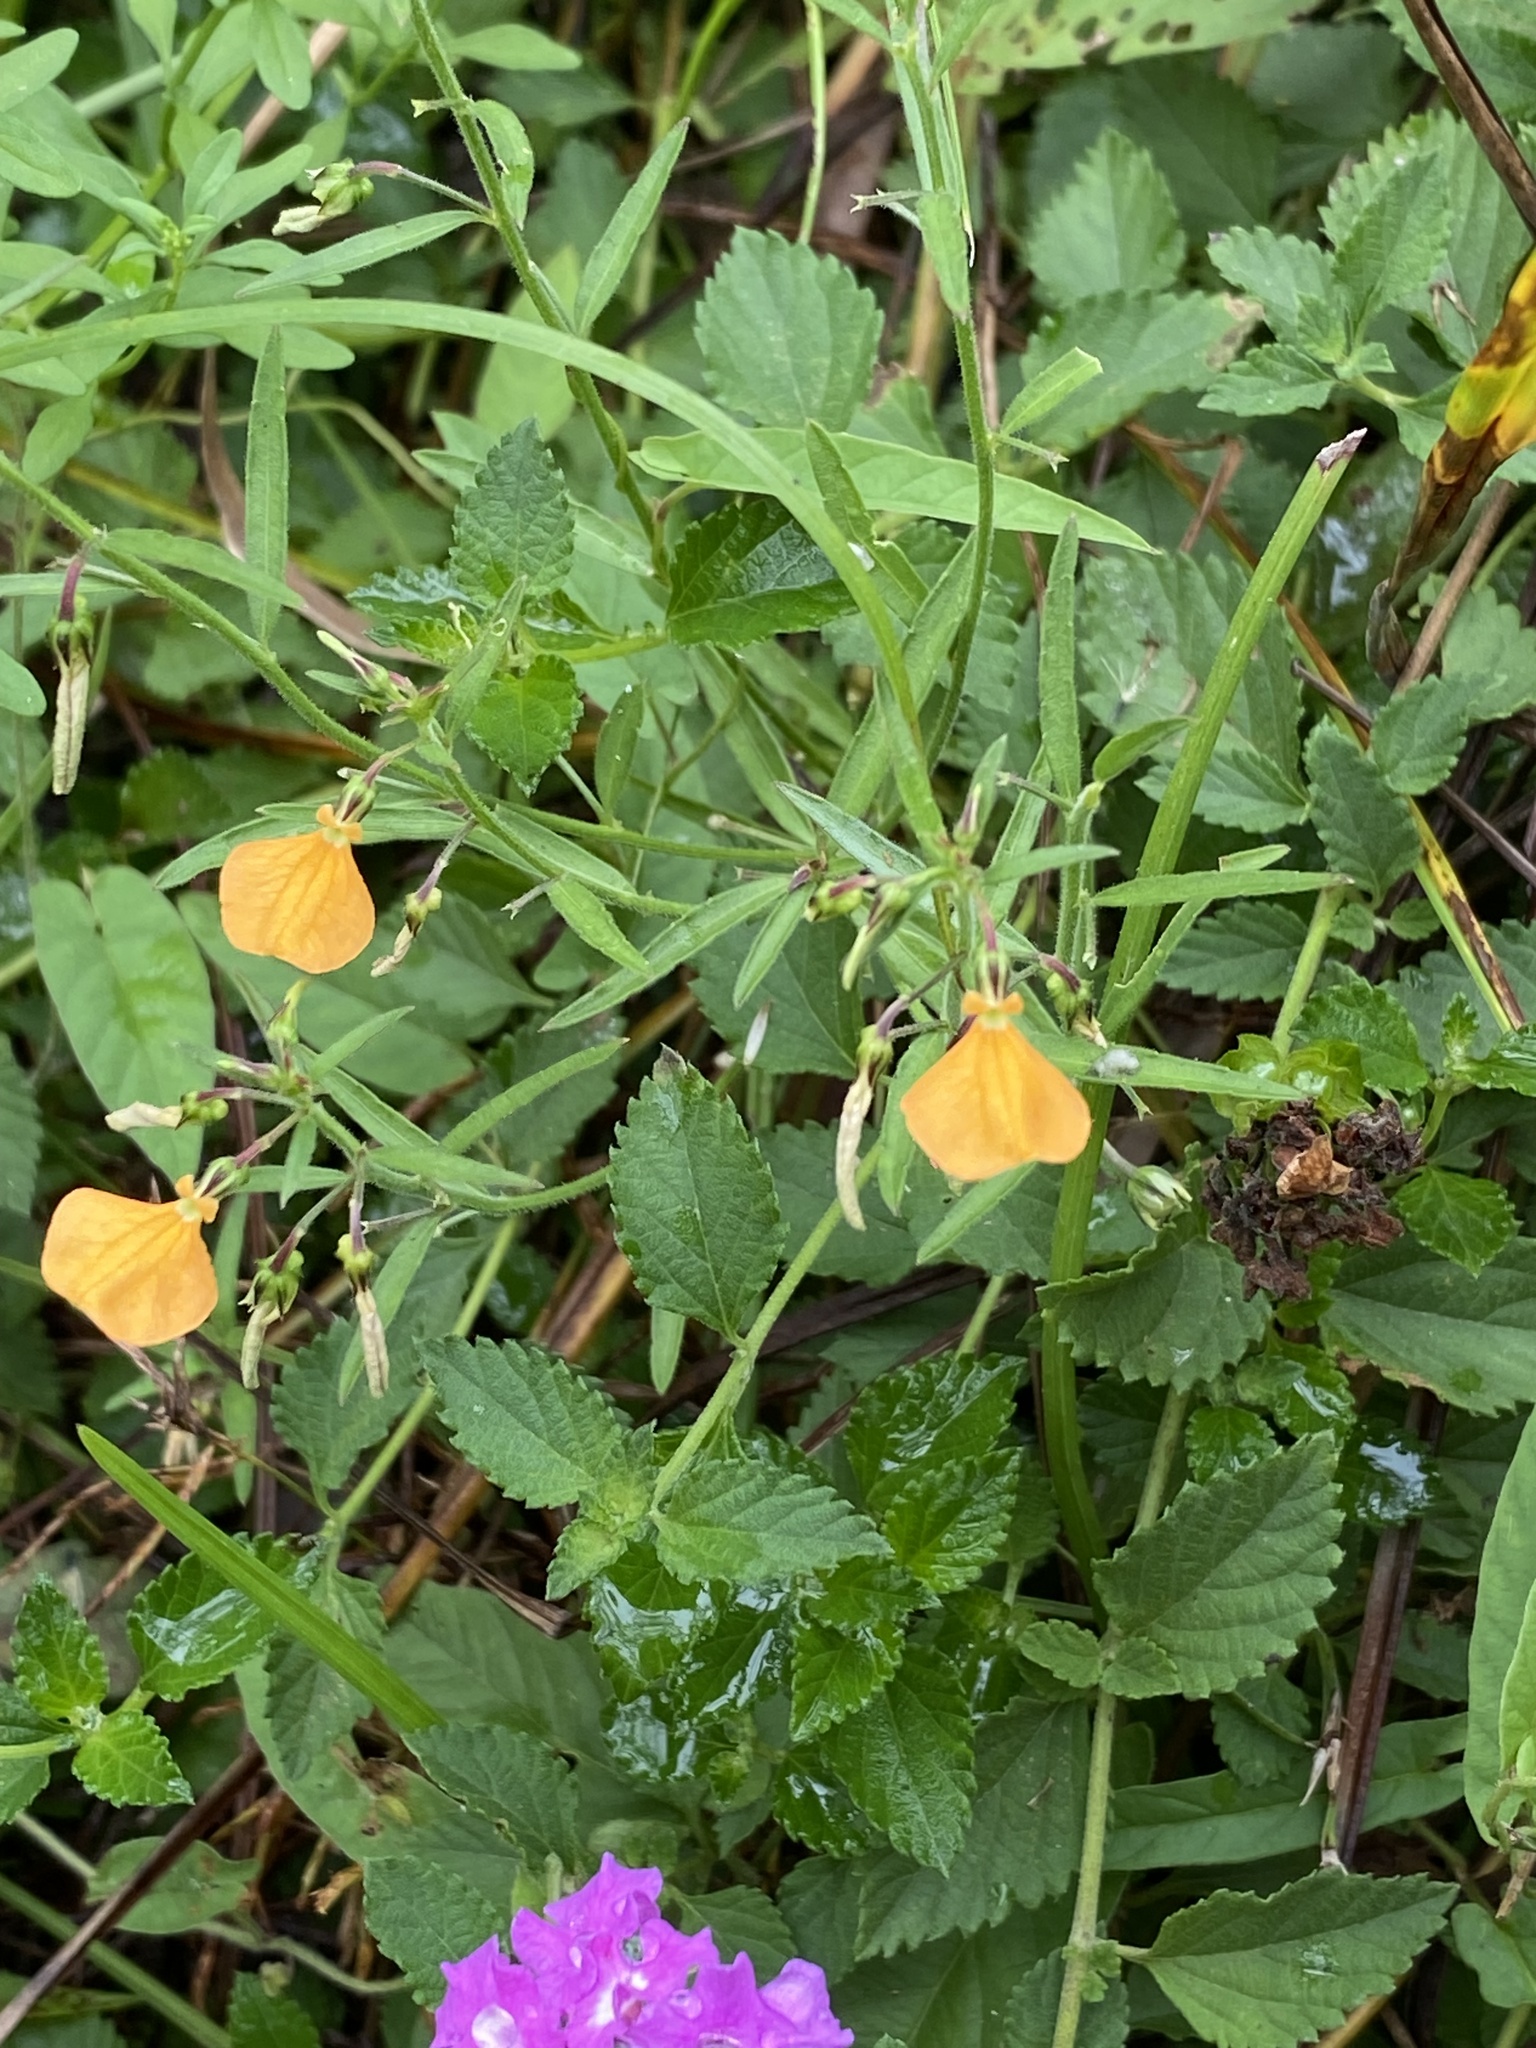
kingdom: Plantae
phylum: Tracheophyta
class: Magnoliopsida
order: Malpighiales
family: Violaceae
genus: Pigea
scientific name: Pigea stellarioides
